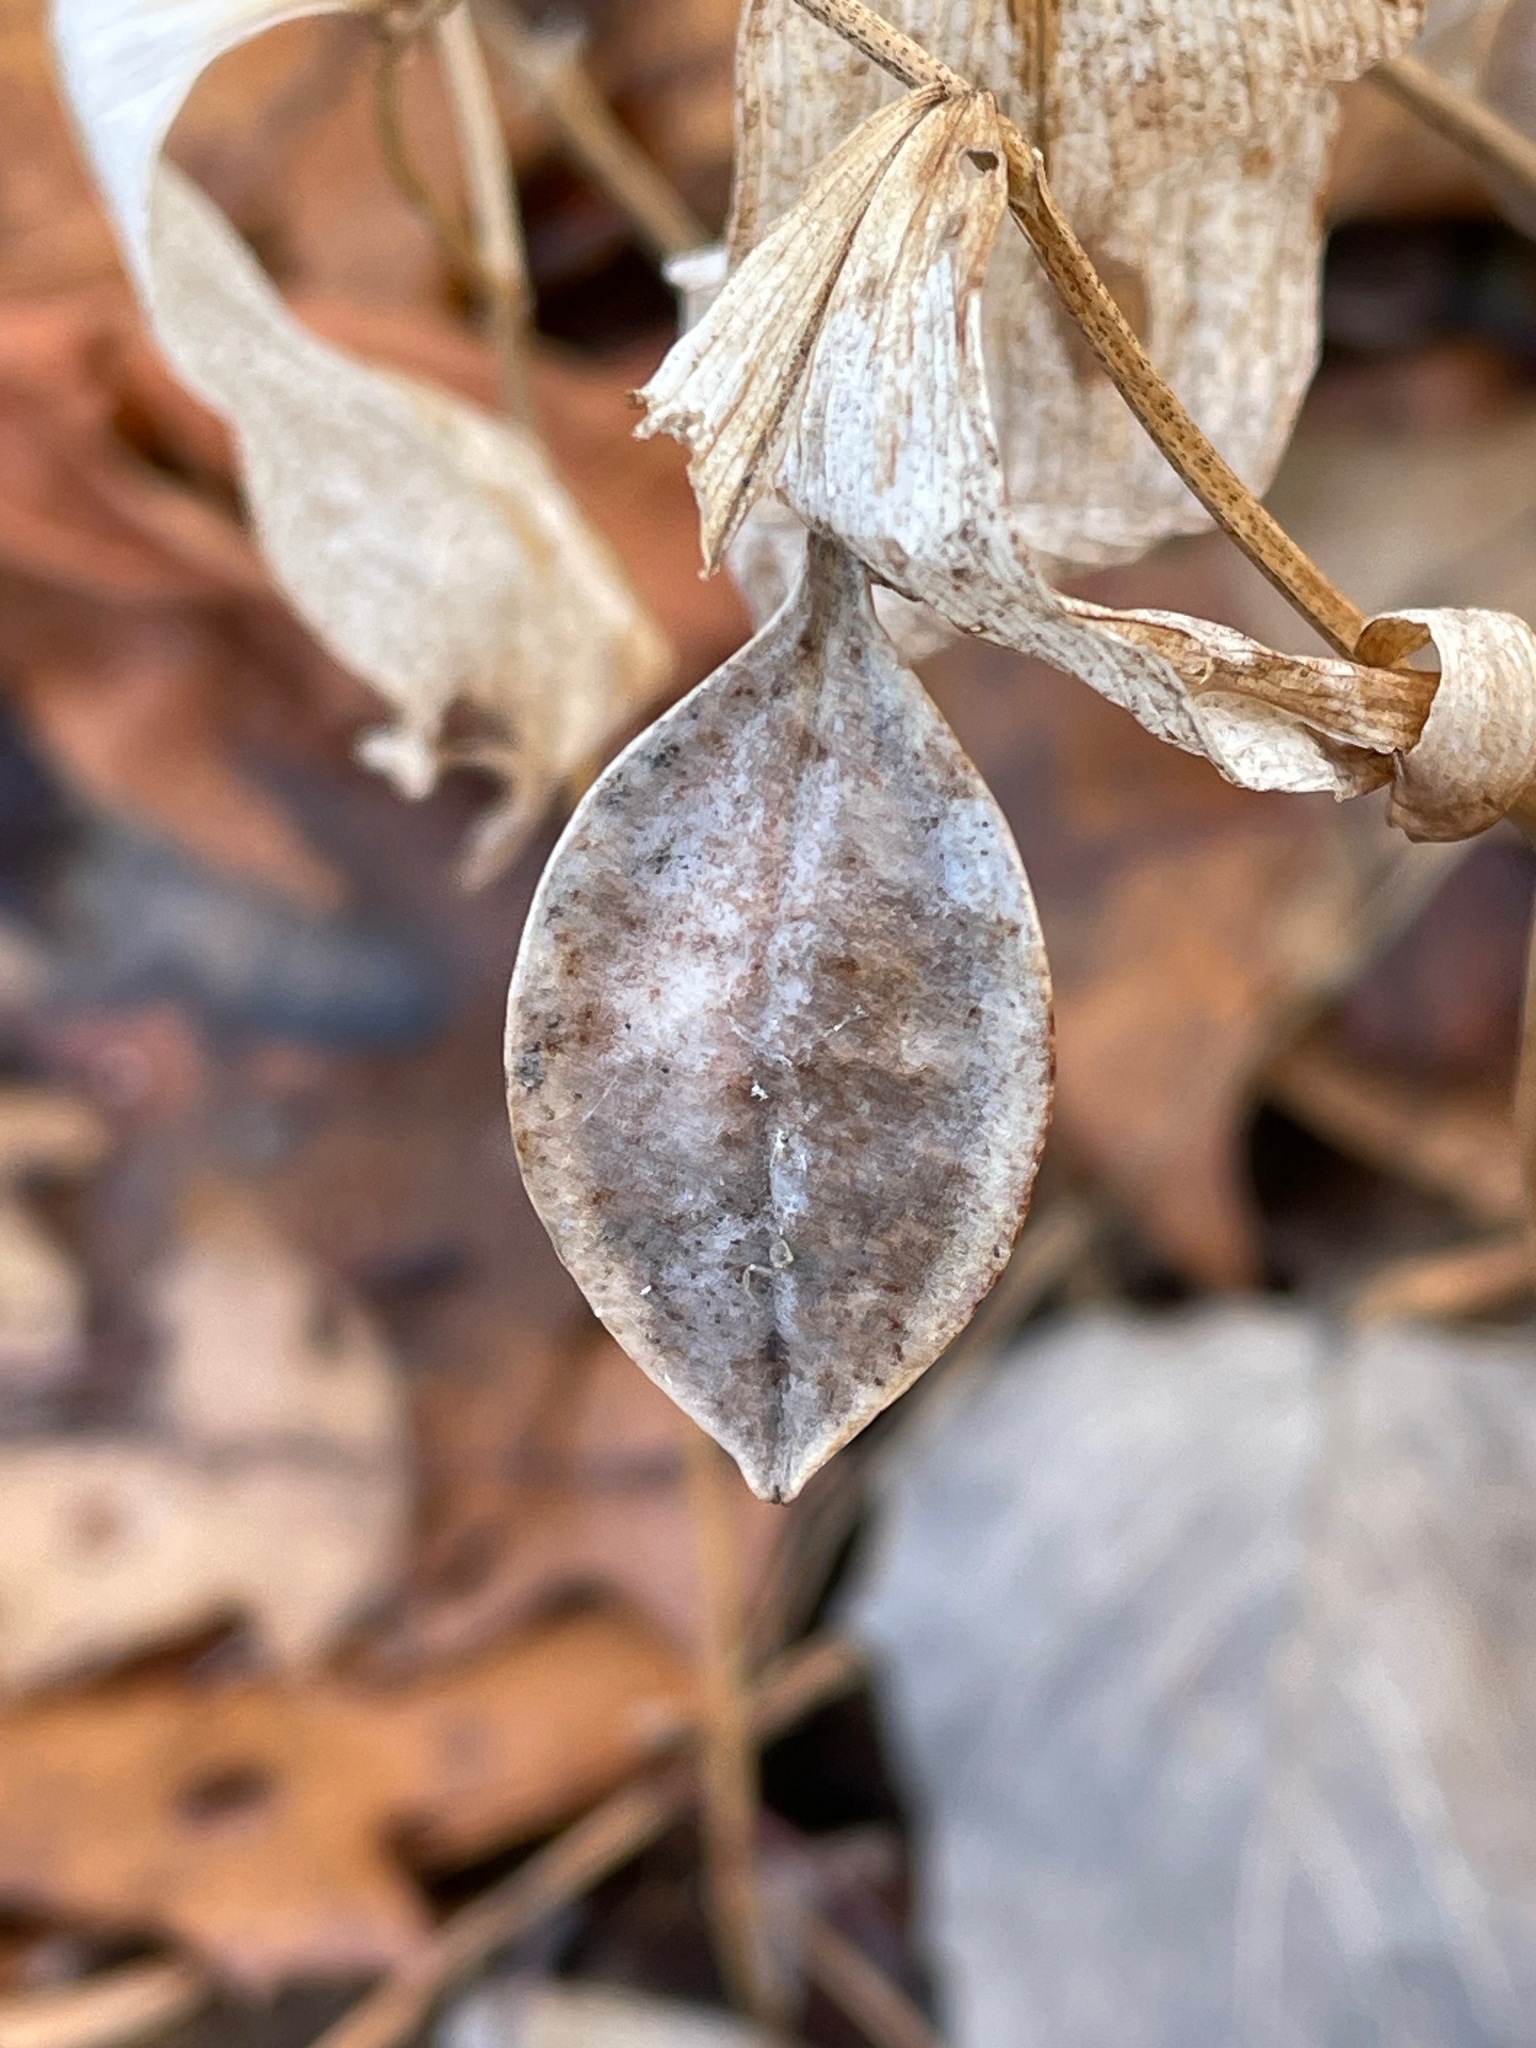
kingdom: Plantae
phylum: Tracheophyta
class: Liliopsida
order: Liliales
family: Colchicaceae
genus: Uvularia
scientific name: Uvularia sessilifolia
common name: Straw-lily
